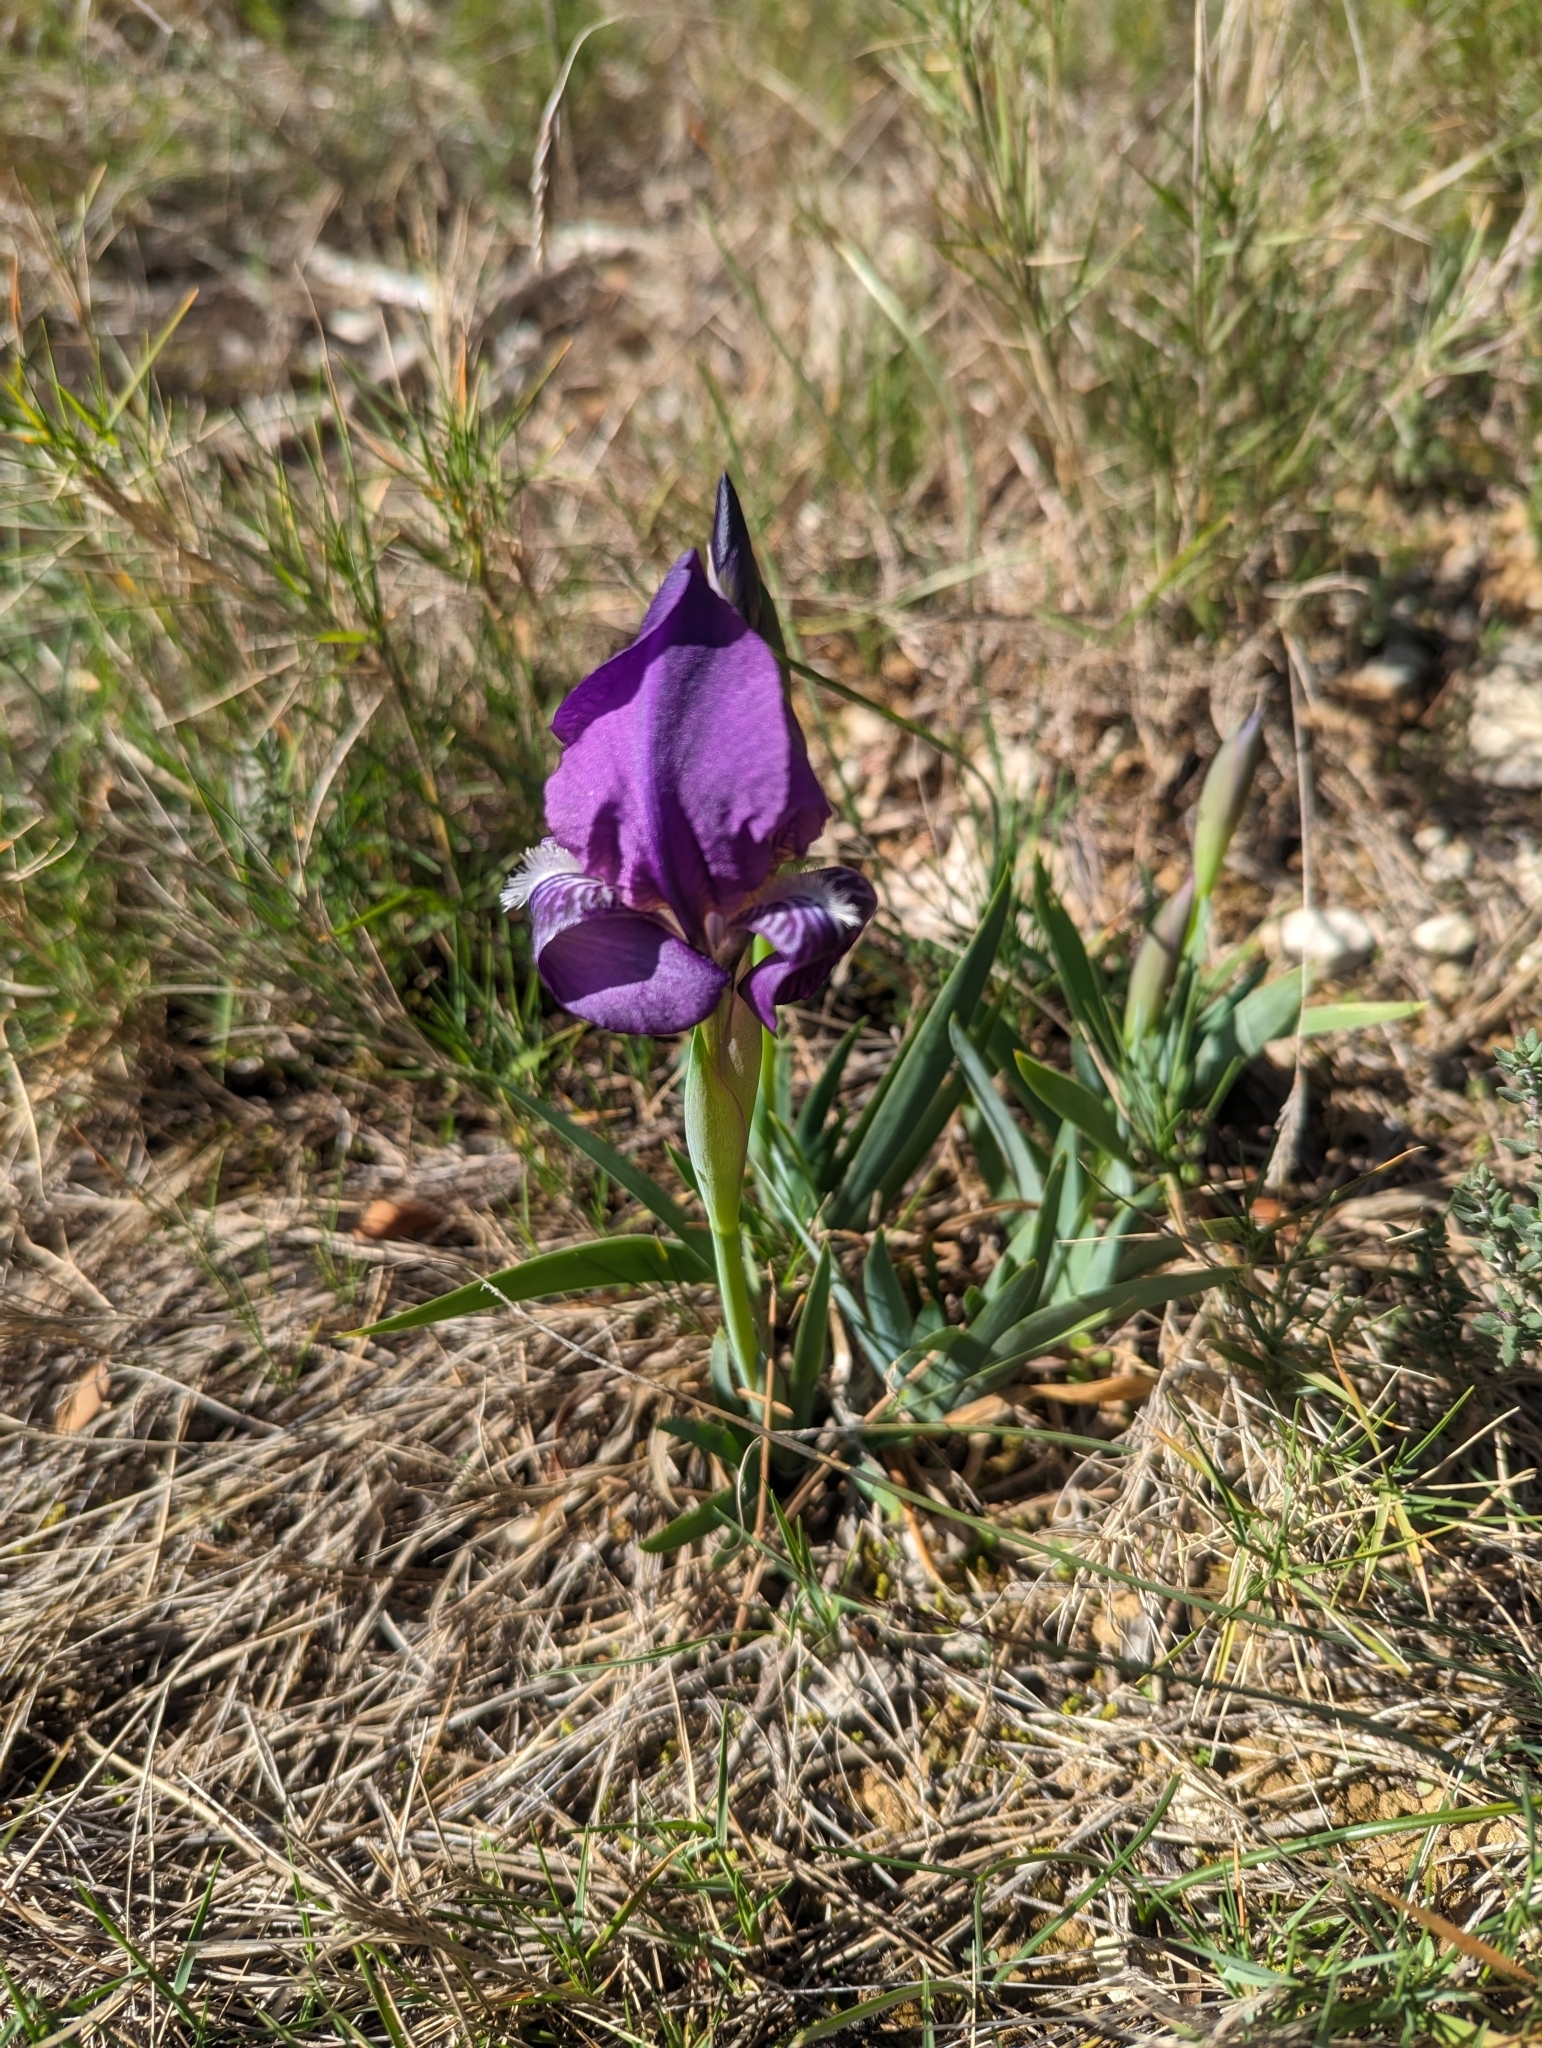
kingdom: Plantae
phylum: Tracheophyta
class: Liliopsida
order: Asparagales
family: Iridaceae
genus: Iris
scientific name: Iris lutescens
